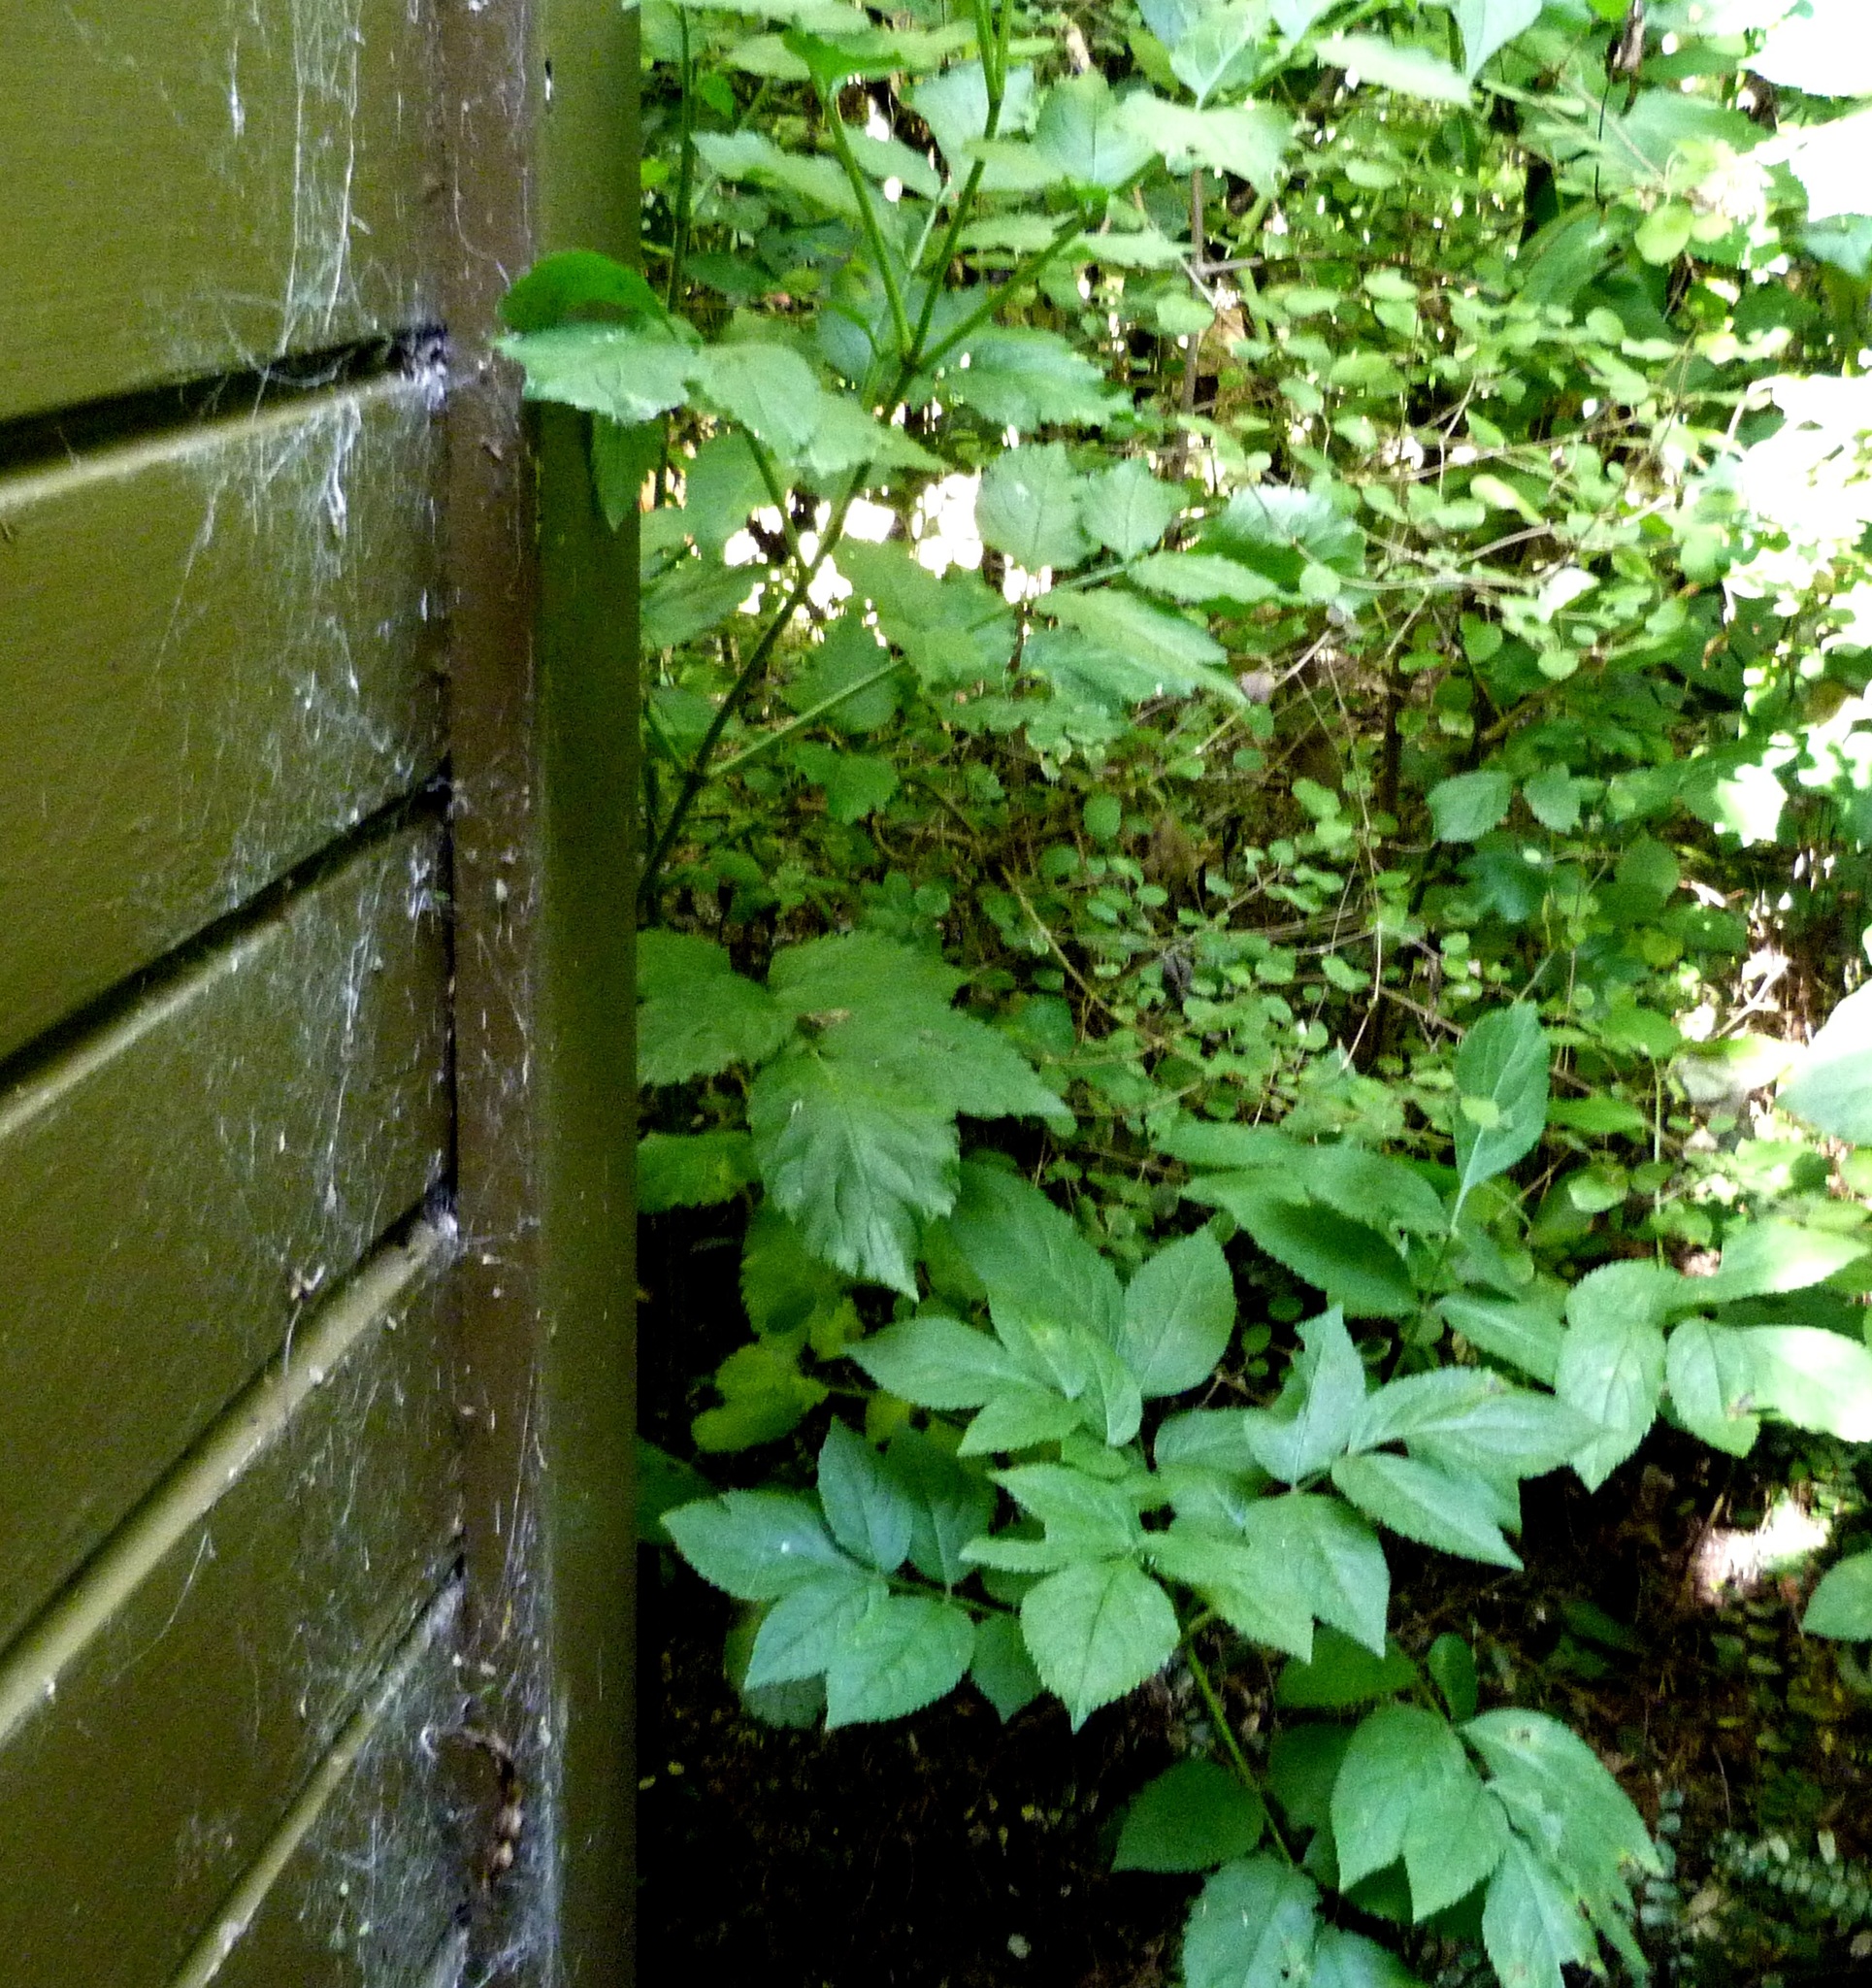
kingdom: Plantae
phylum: Tracheophyta
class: Magnoliopsida
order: Dipsacales
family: Viburnaceae
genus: Sambucus
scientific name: Sambucus nigra
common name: Elder
